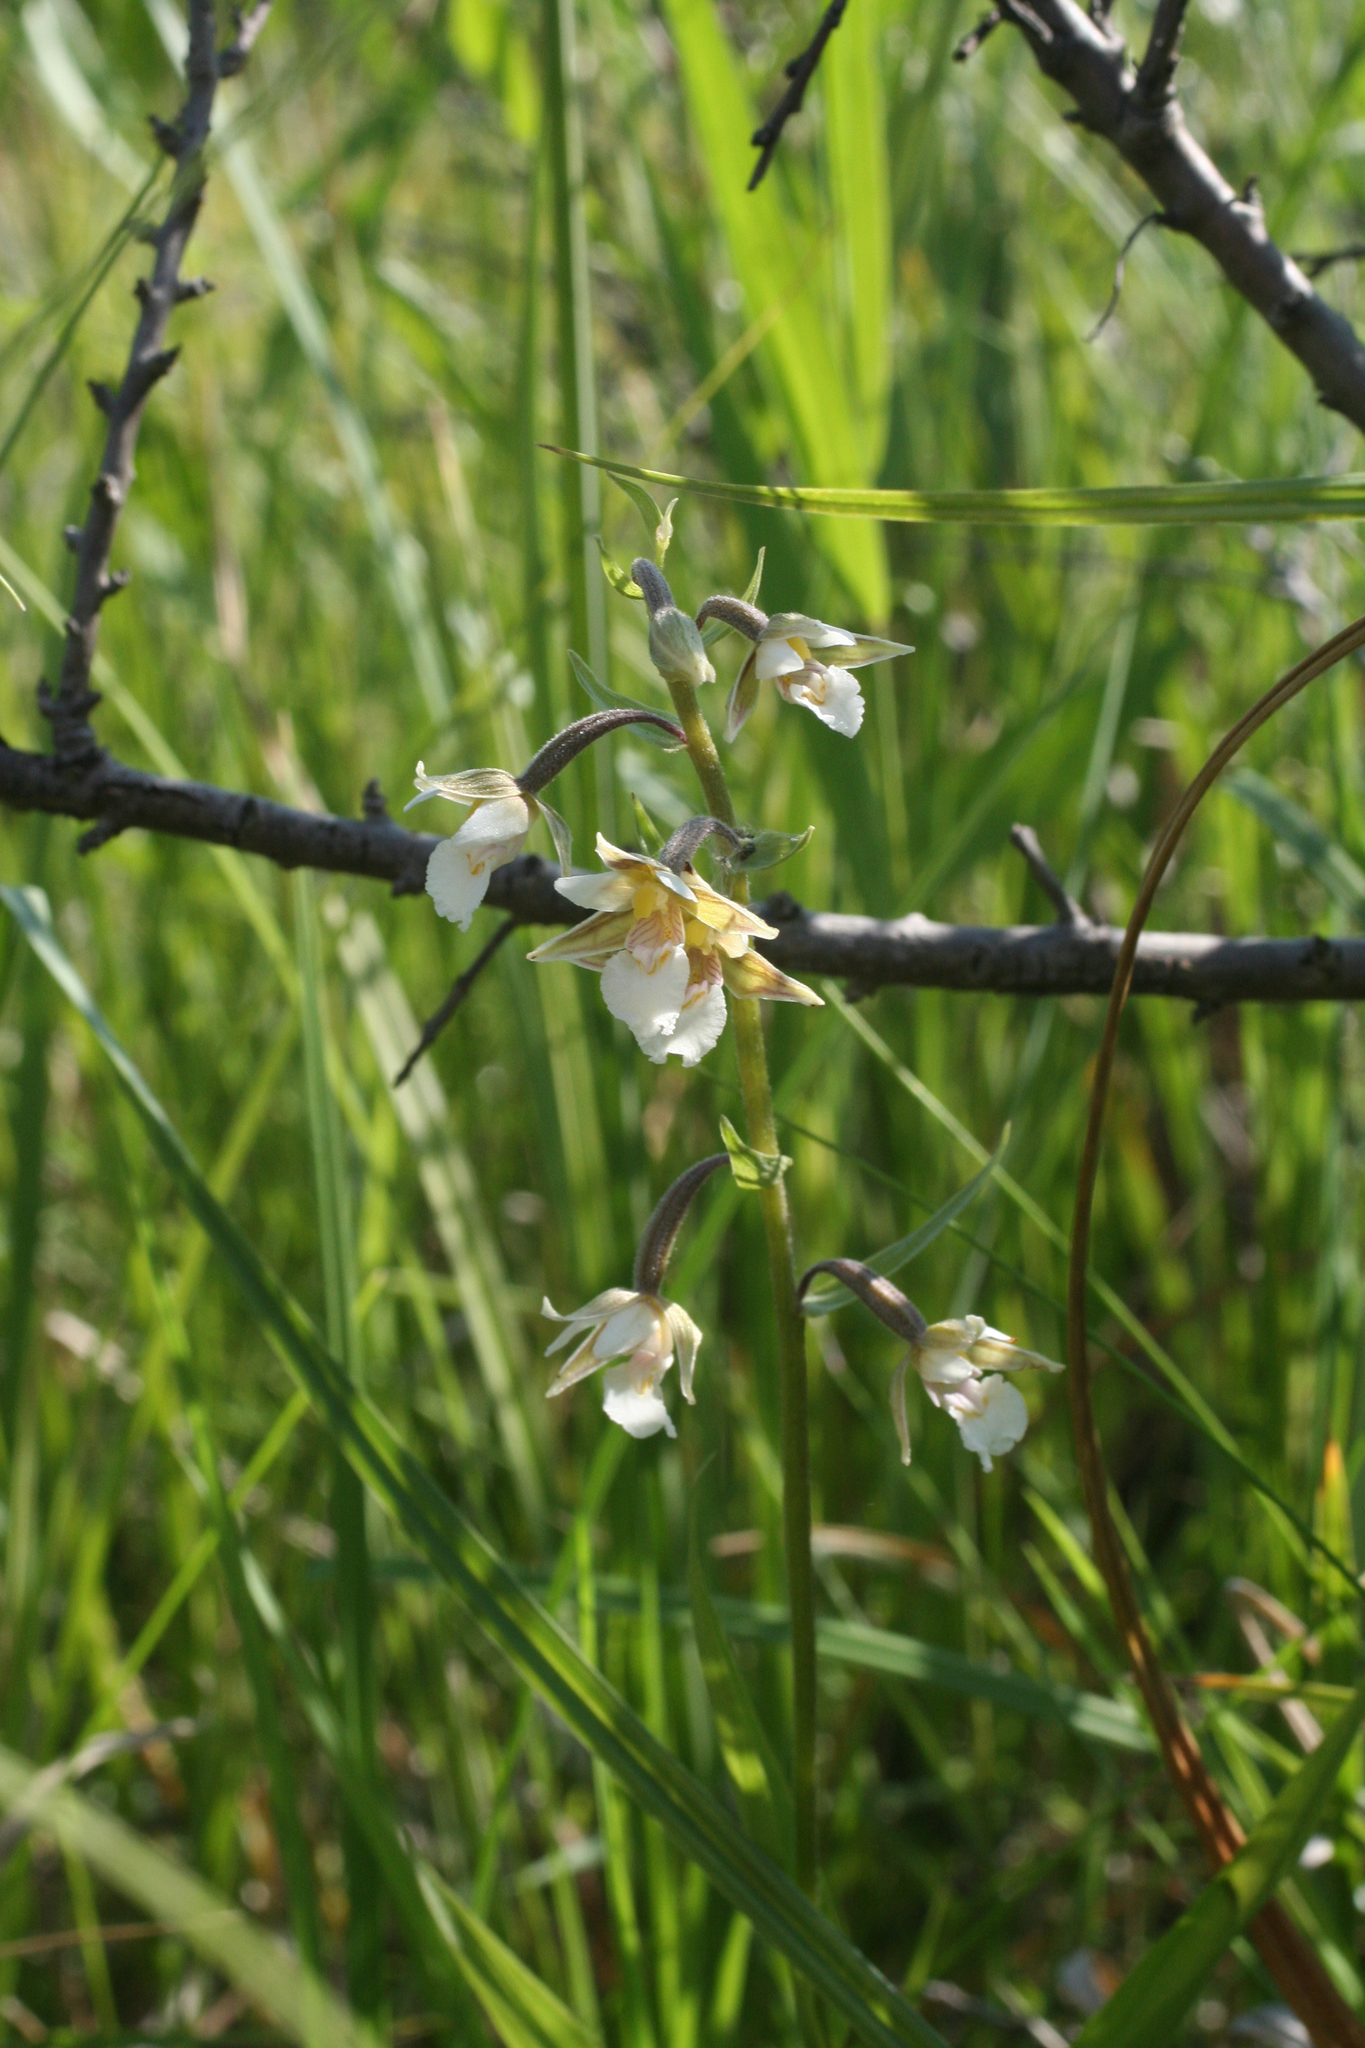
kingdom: Plantae
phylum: Tracheophyta
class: Liliopsida
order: Asparagales
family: Orchidaceae
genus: Epipactis
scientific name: Epipactis palustris
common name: Marsh helleborine
